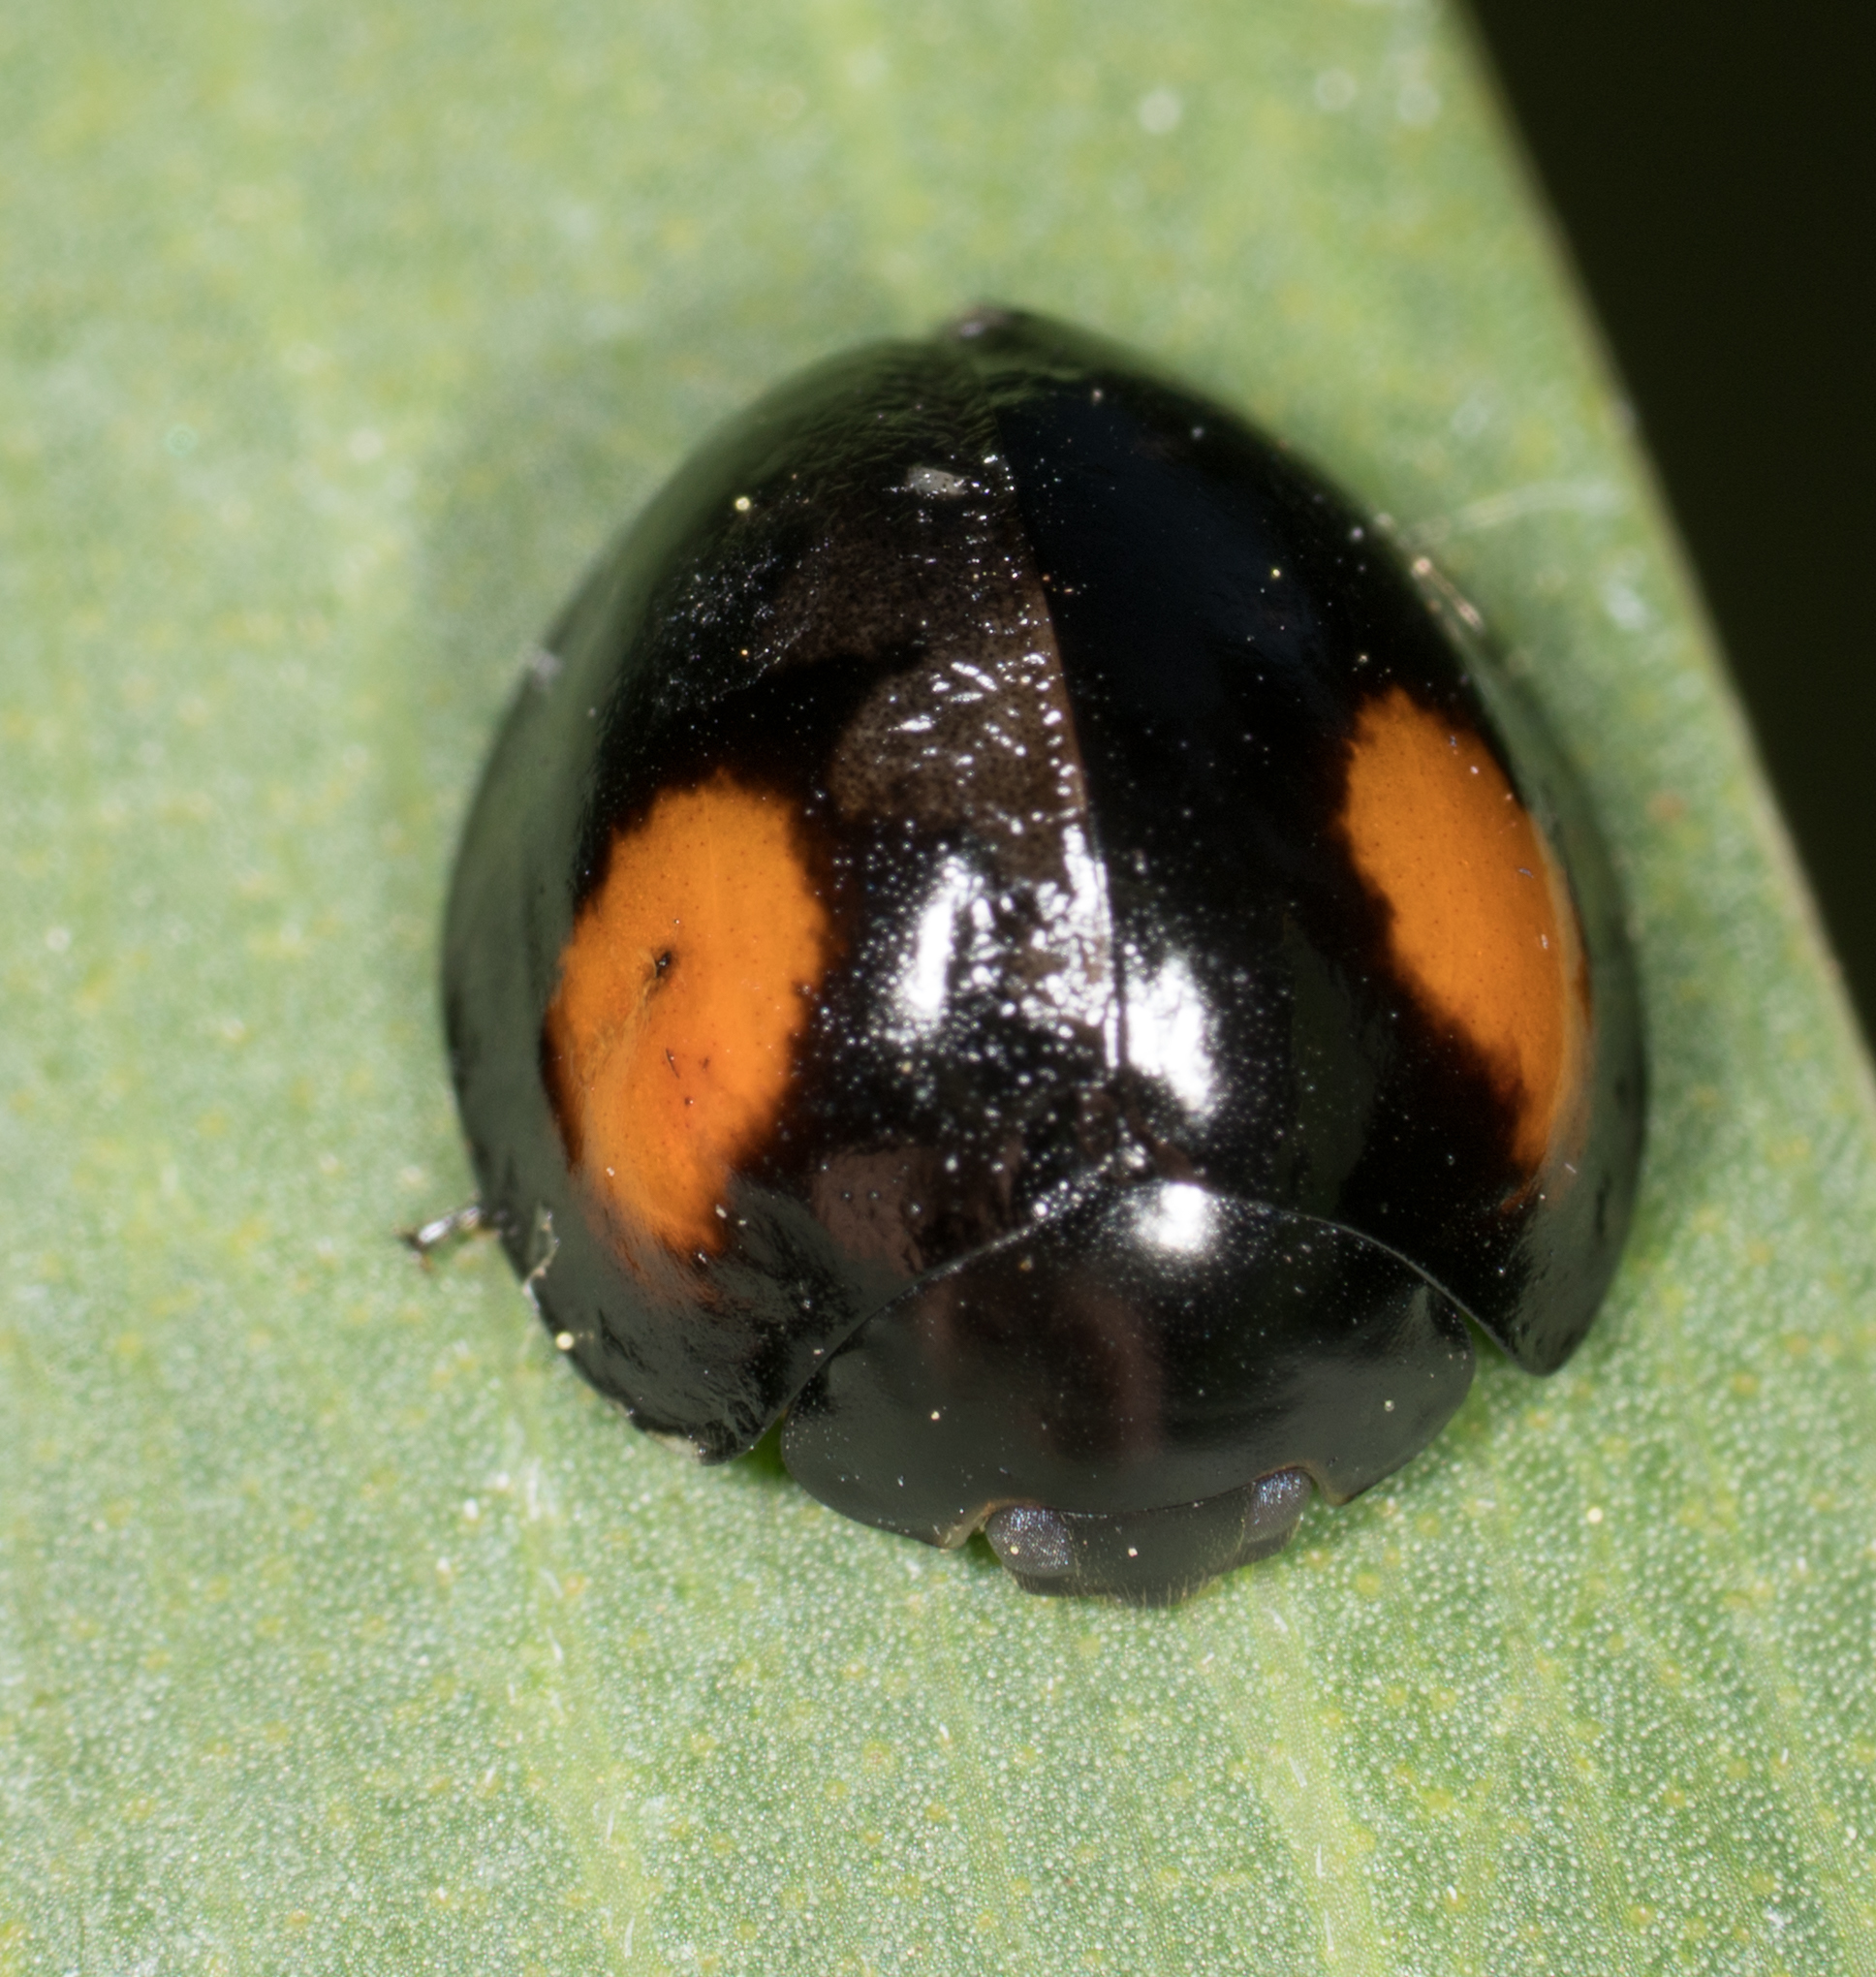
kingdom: Animalia
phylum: Arthropoda
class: Insecta
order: Coleoptera
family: Coccinellidae
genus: Axion
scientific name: Axion plagiatum
